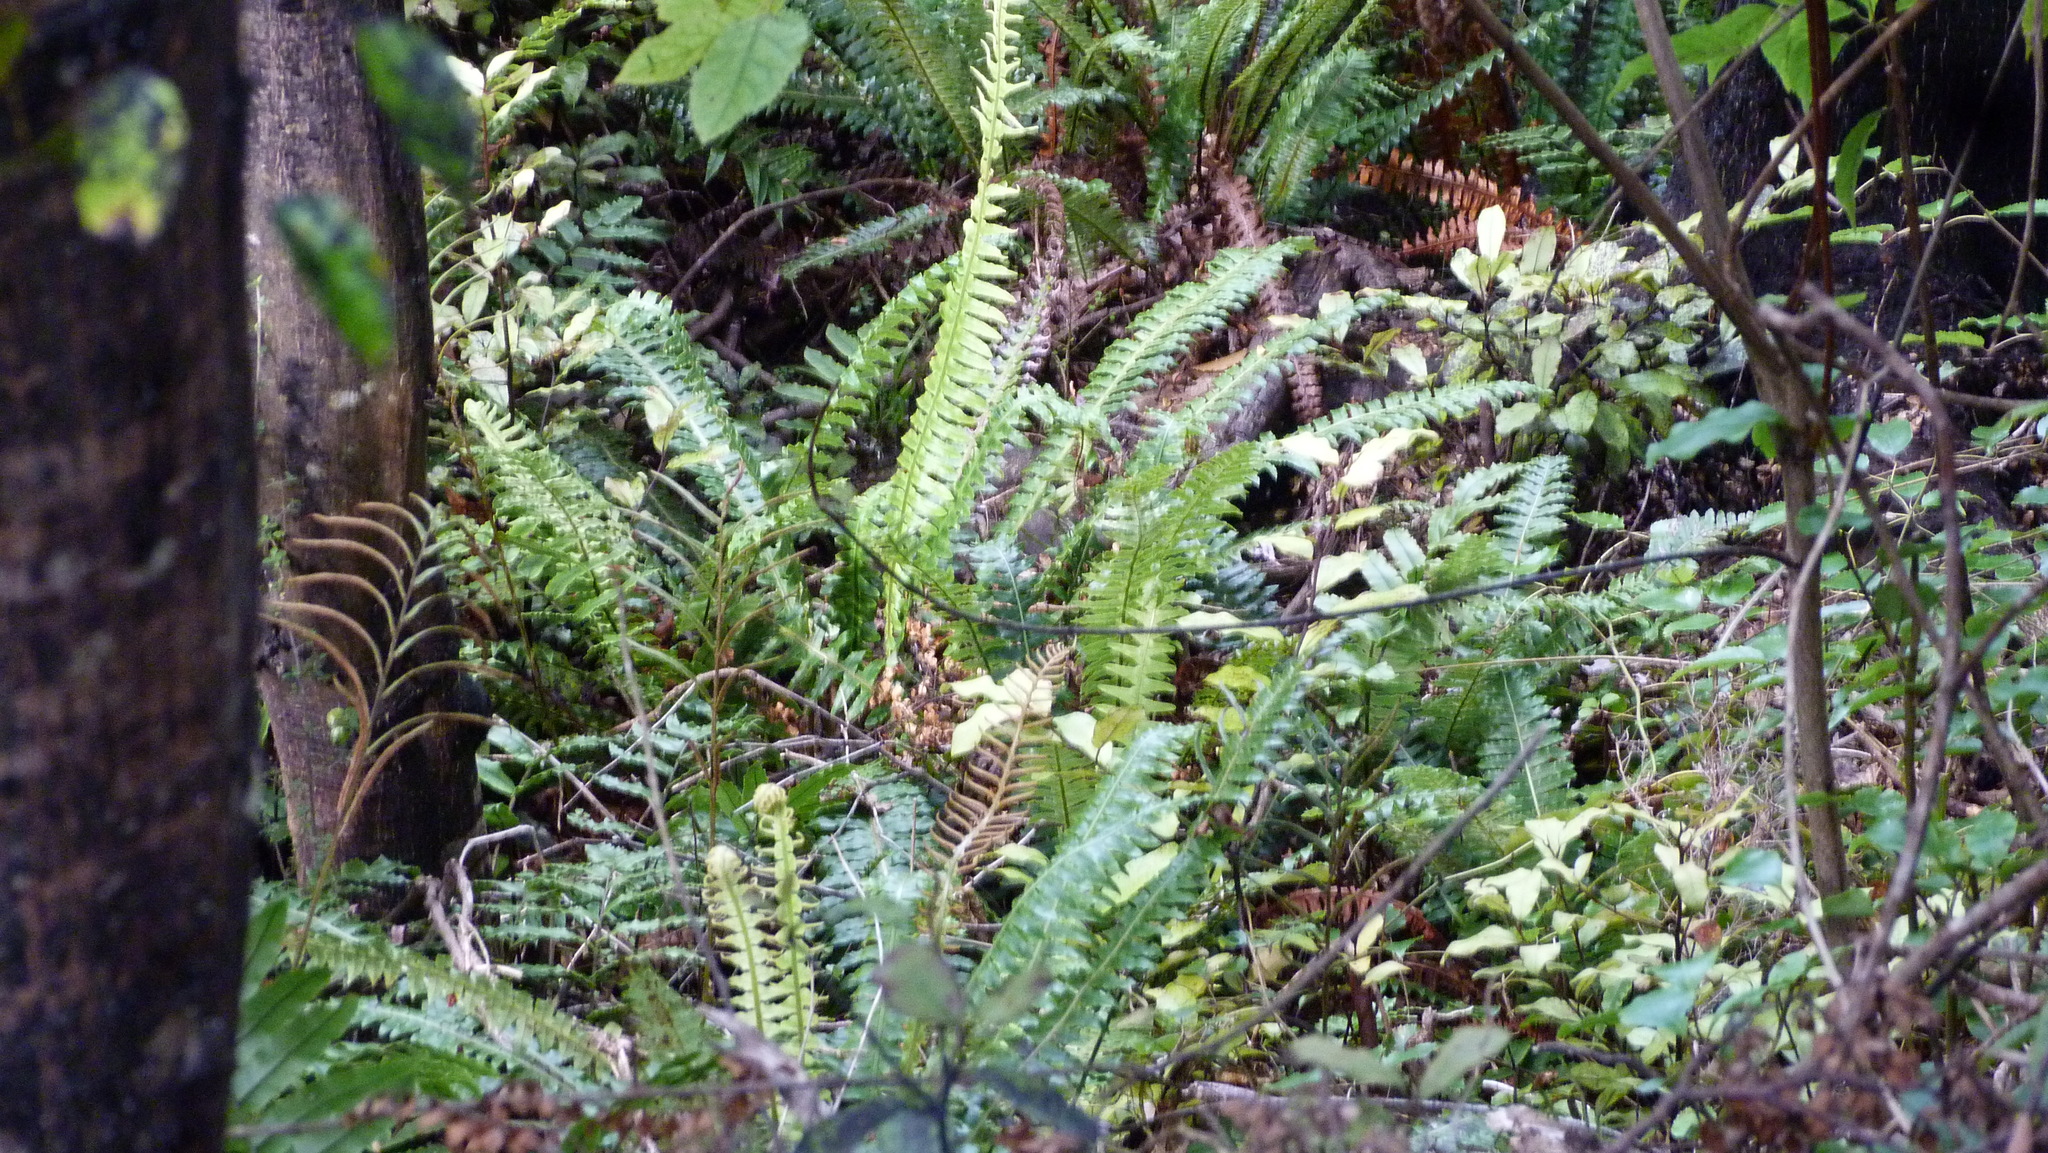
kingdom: Plantae
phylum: Tracheophyta
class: Polypodiopsida
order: Polypodiales
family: Blechnaceae
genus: Lomaria
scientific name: Lomaria discolor
